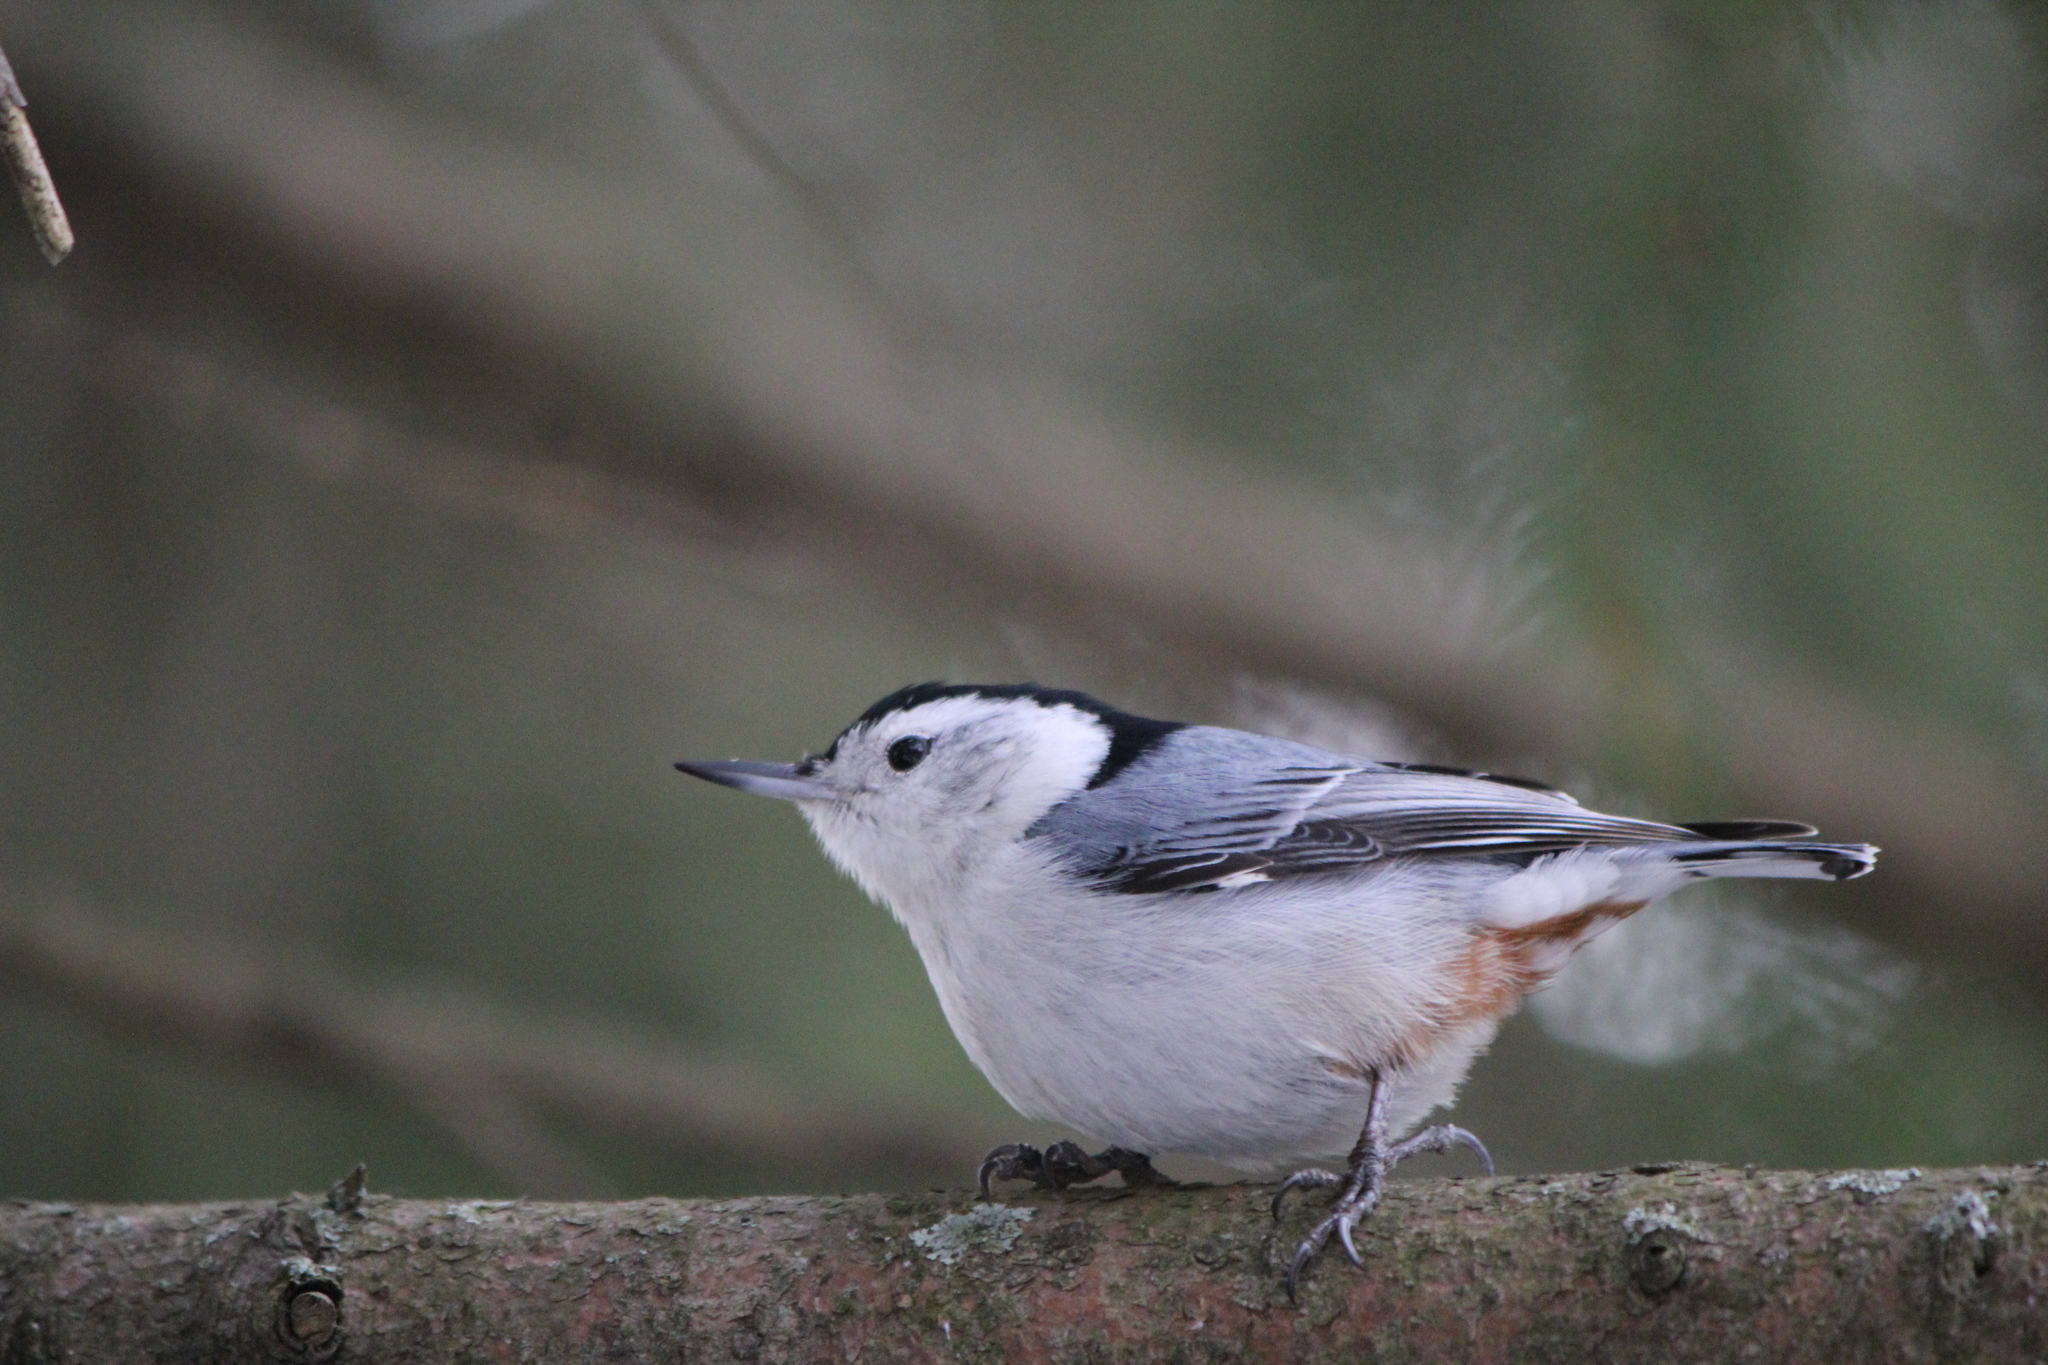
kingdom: Animalia
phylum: Chordata
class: Aves
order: Passeriformes
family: Sittidae
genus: Sitta
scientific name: Sitta carolinensis
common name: White-breasted nuthatch
